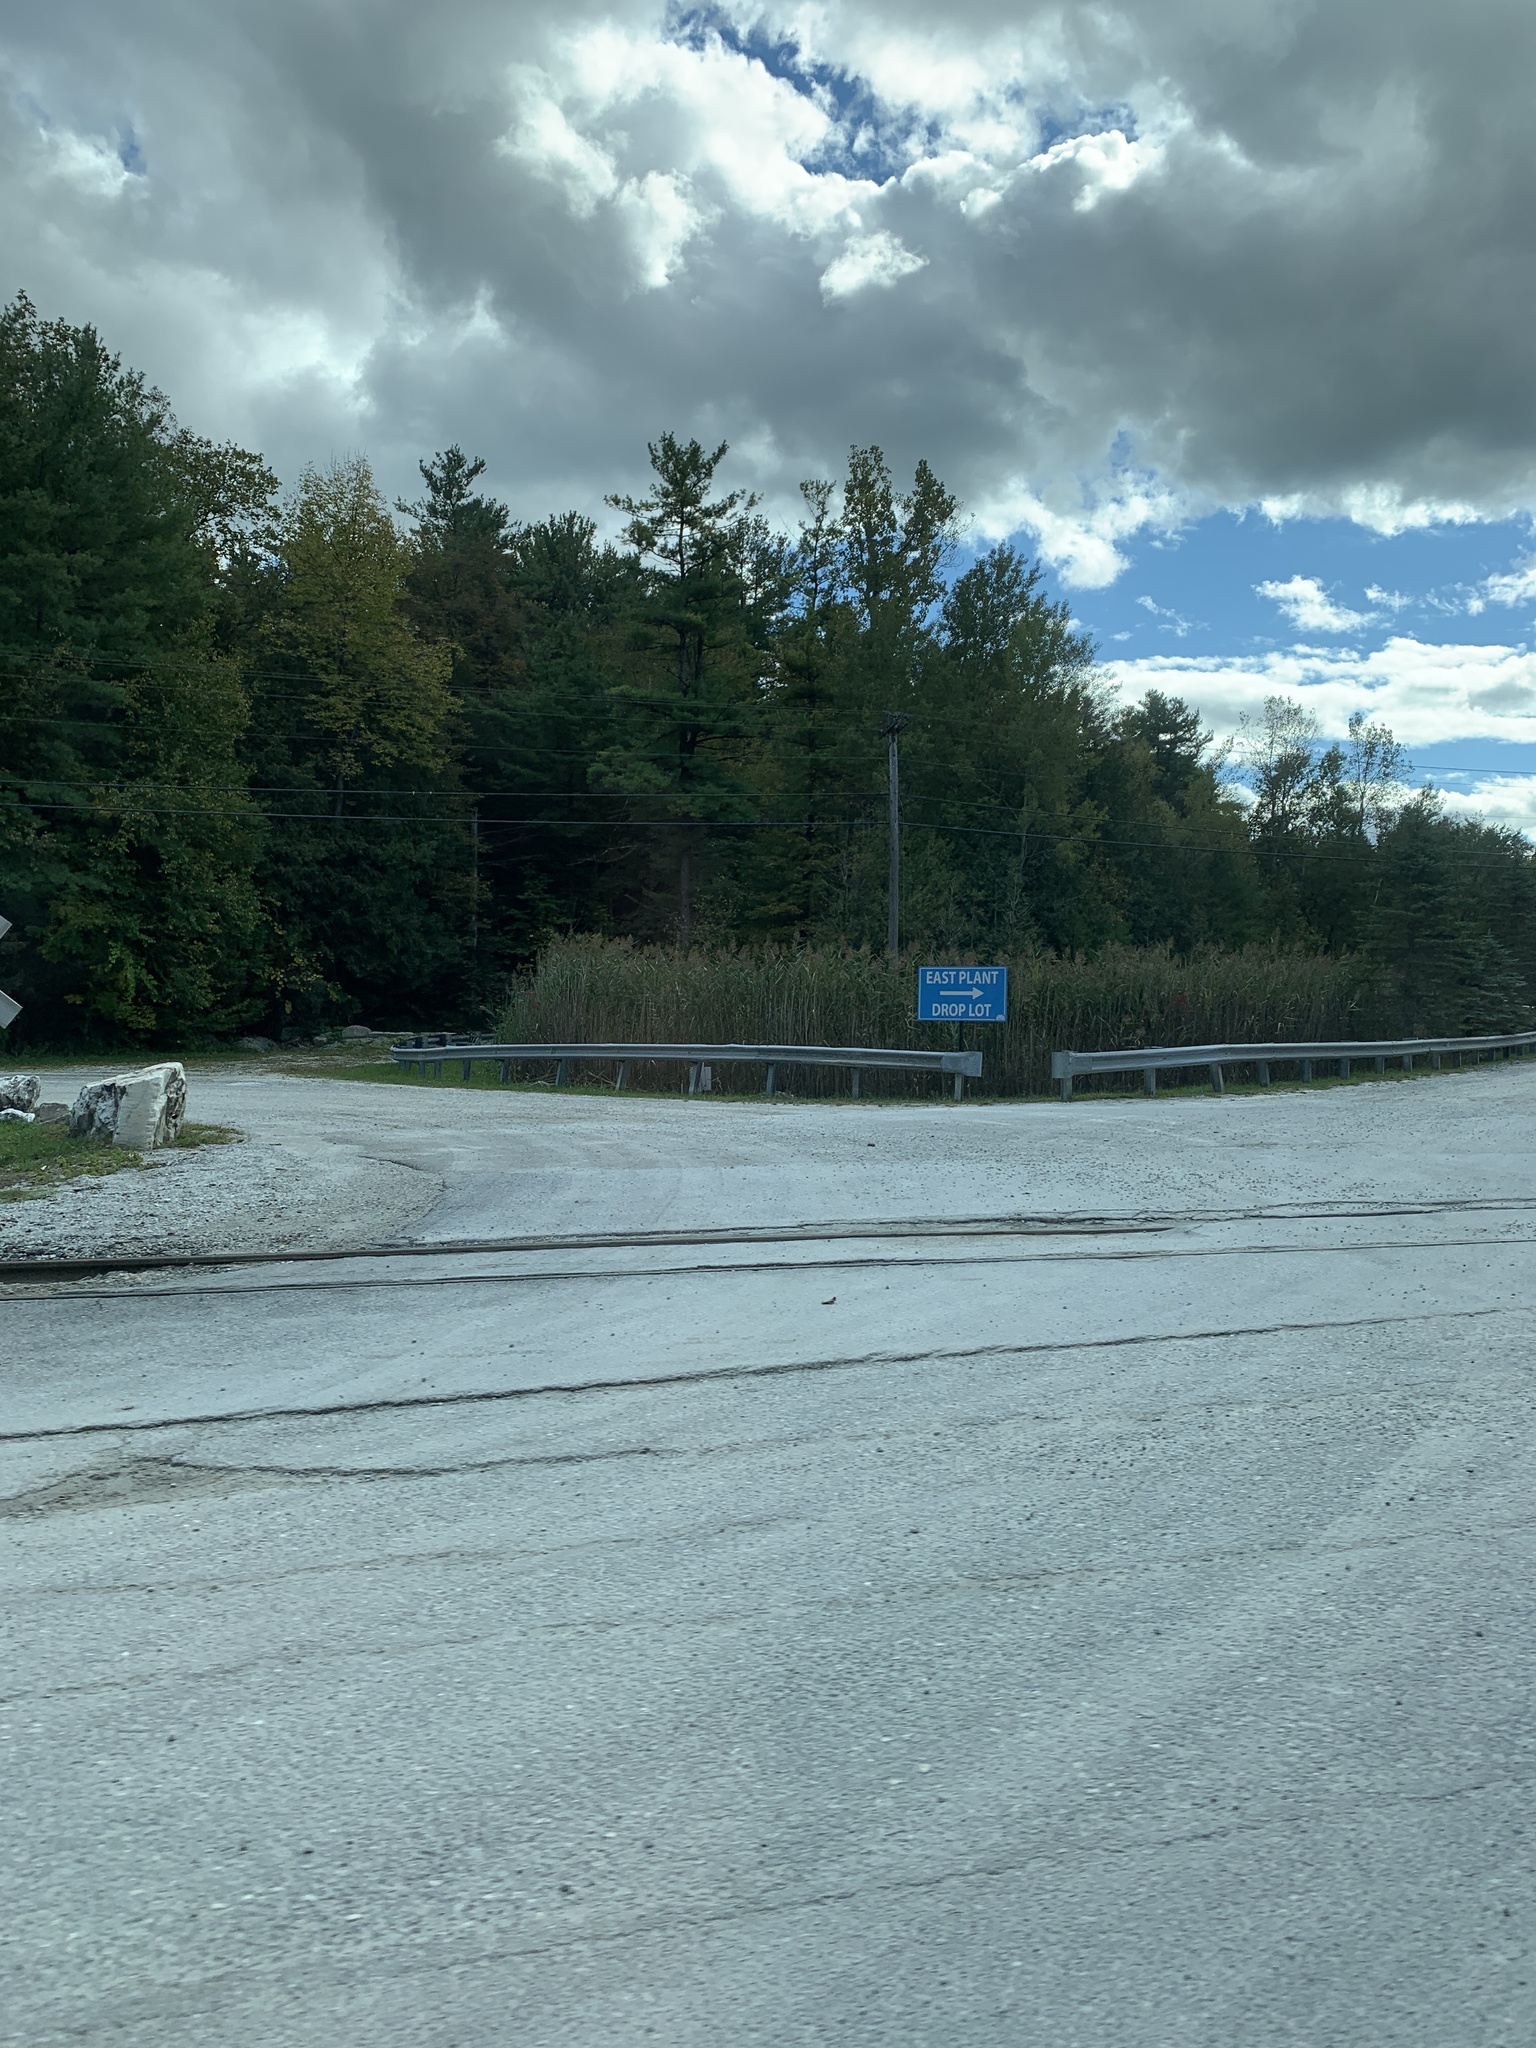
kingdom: Plantae
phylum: Tracheophyta
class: Liliopsida
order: Poales
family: Poaceae
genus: Phragmites
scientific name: Phragmites australis
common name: Common reed
